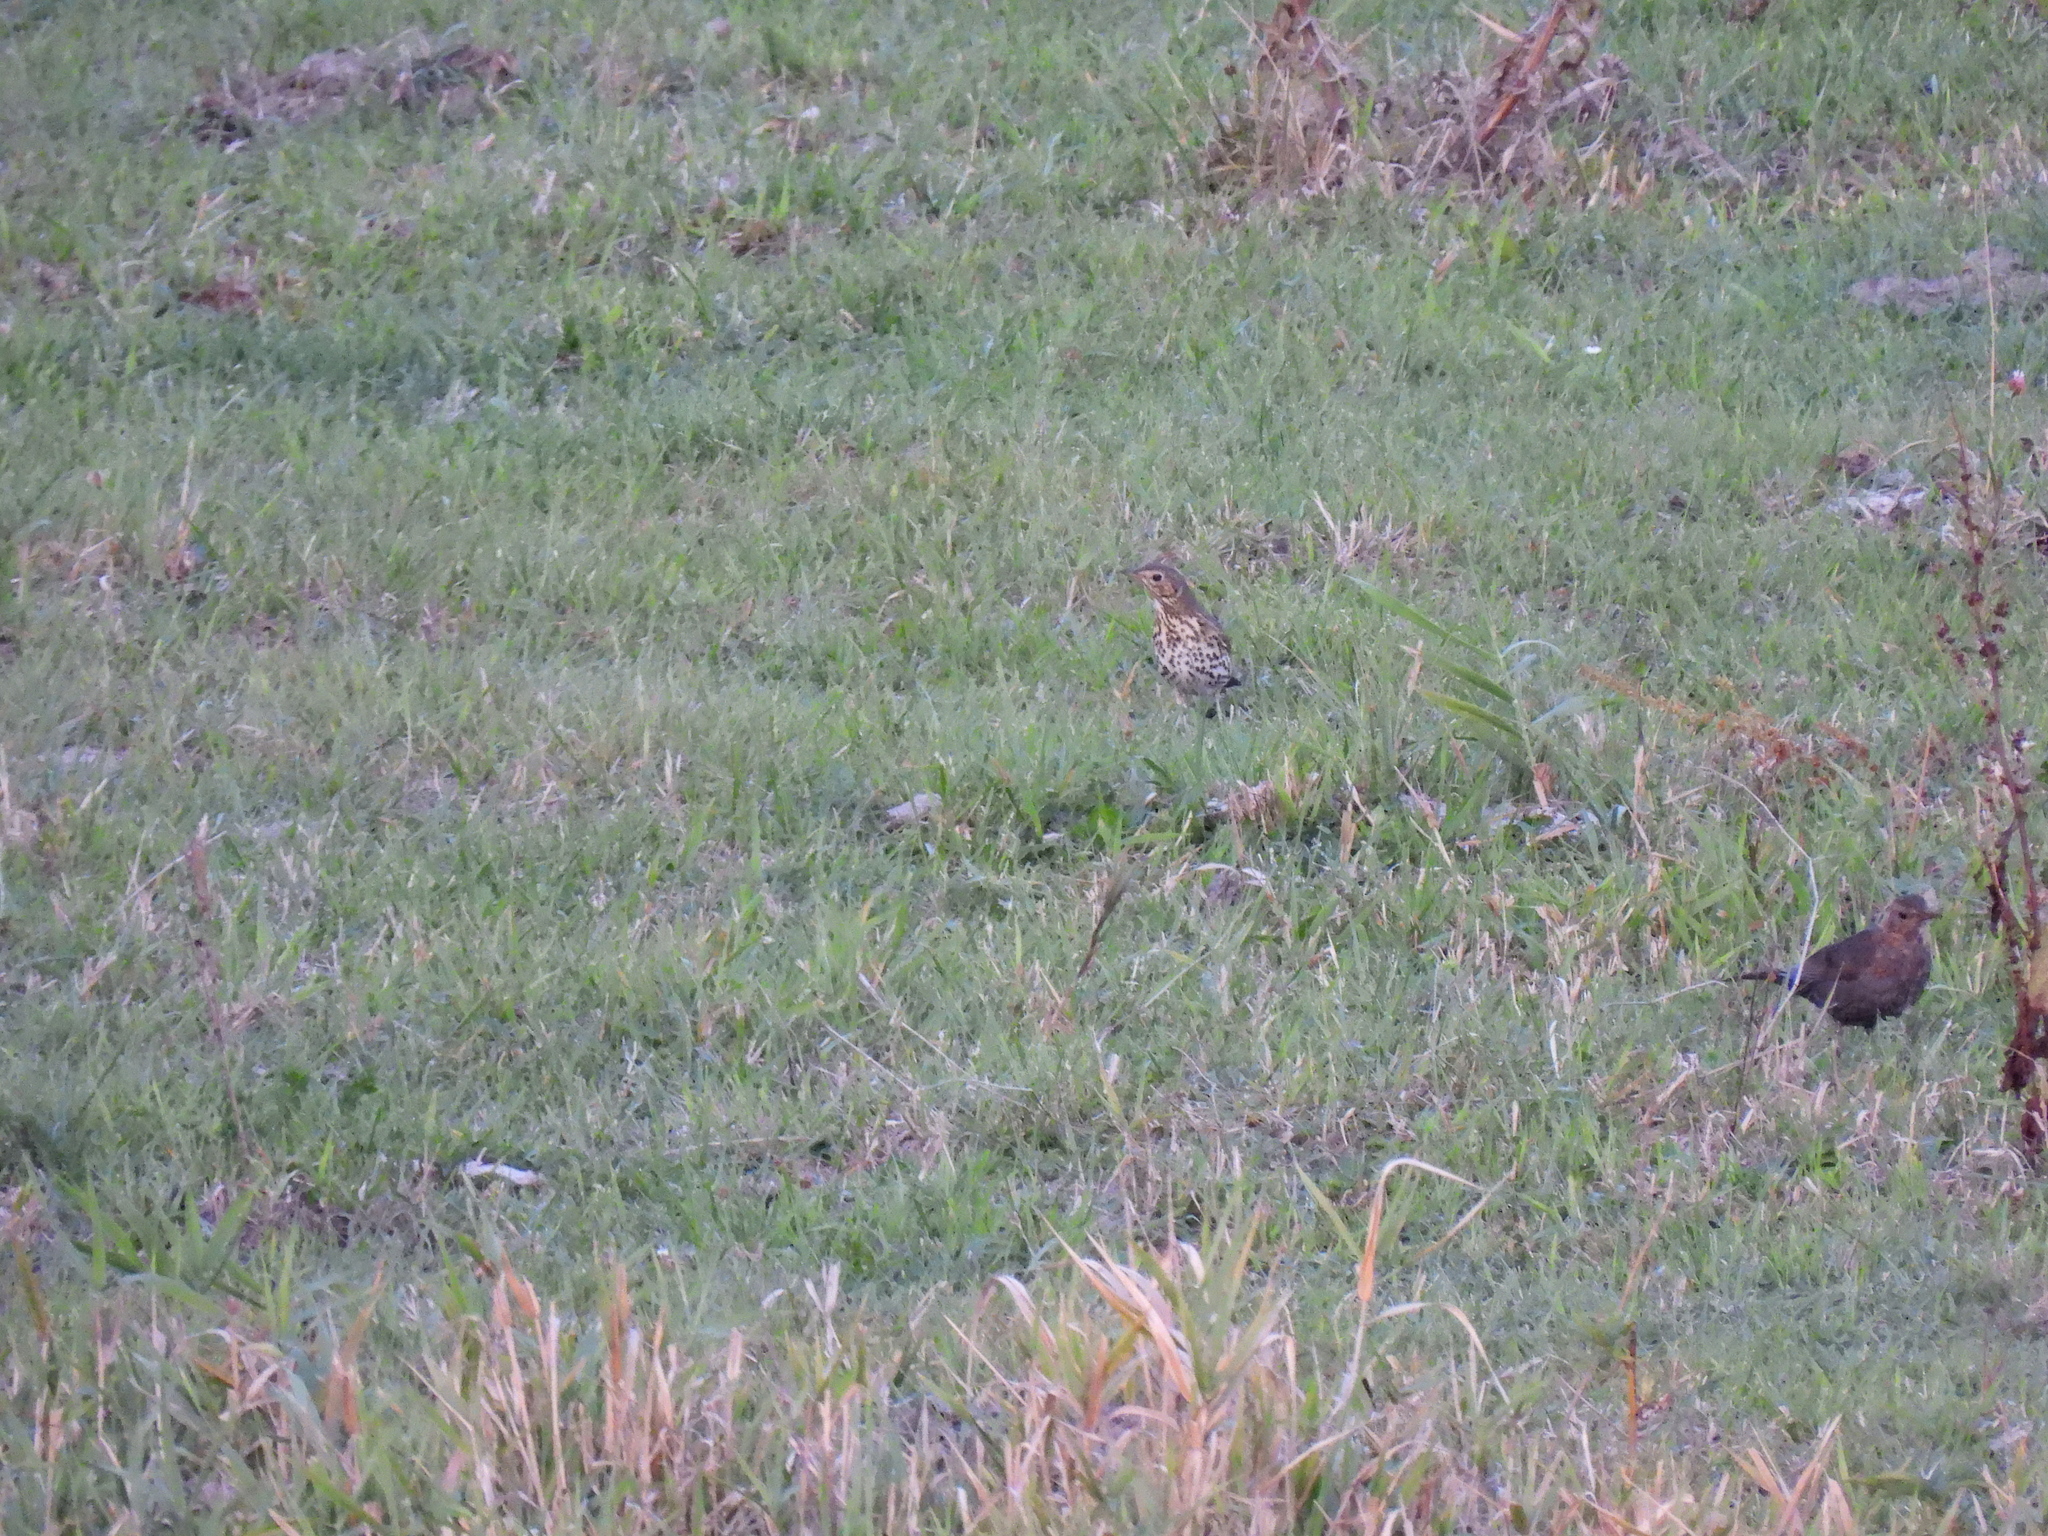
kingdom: Animalia
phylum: Chordata
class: Aves
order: Passeriformes
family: Turdidae
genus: Turdus
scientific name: Turdus philomelos
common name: Song thrush
